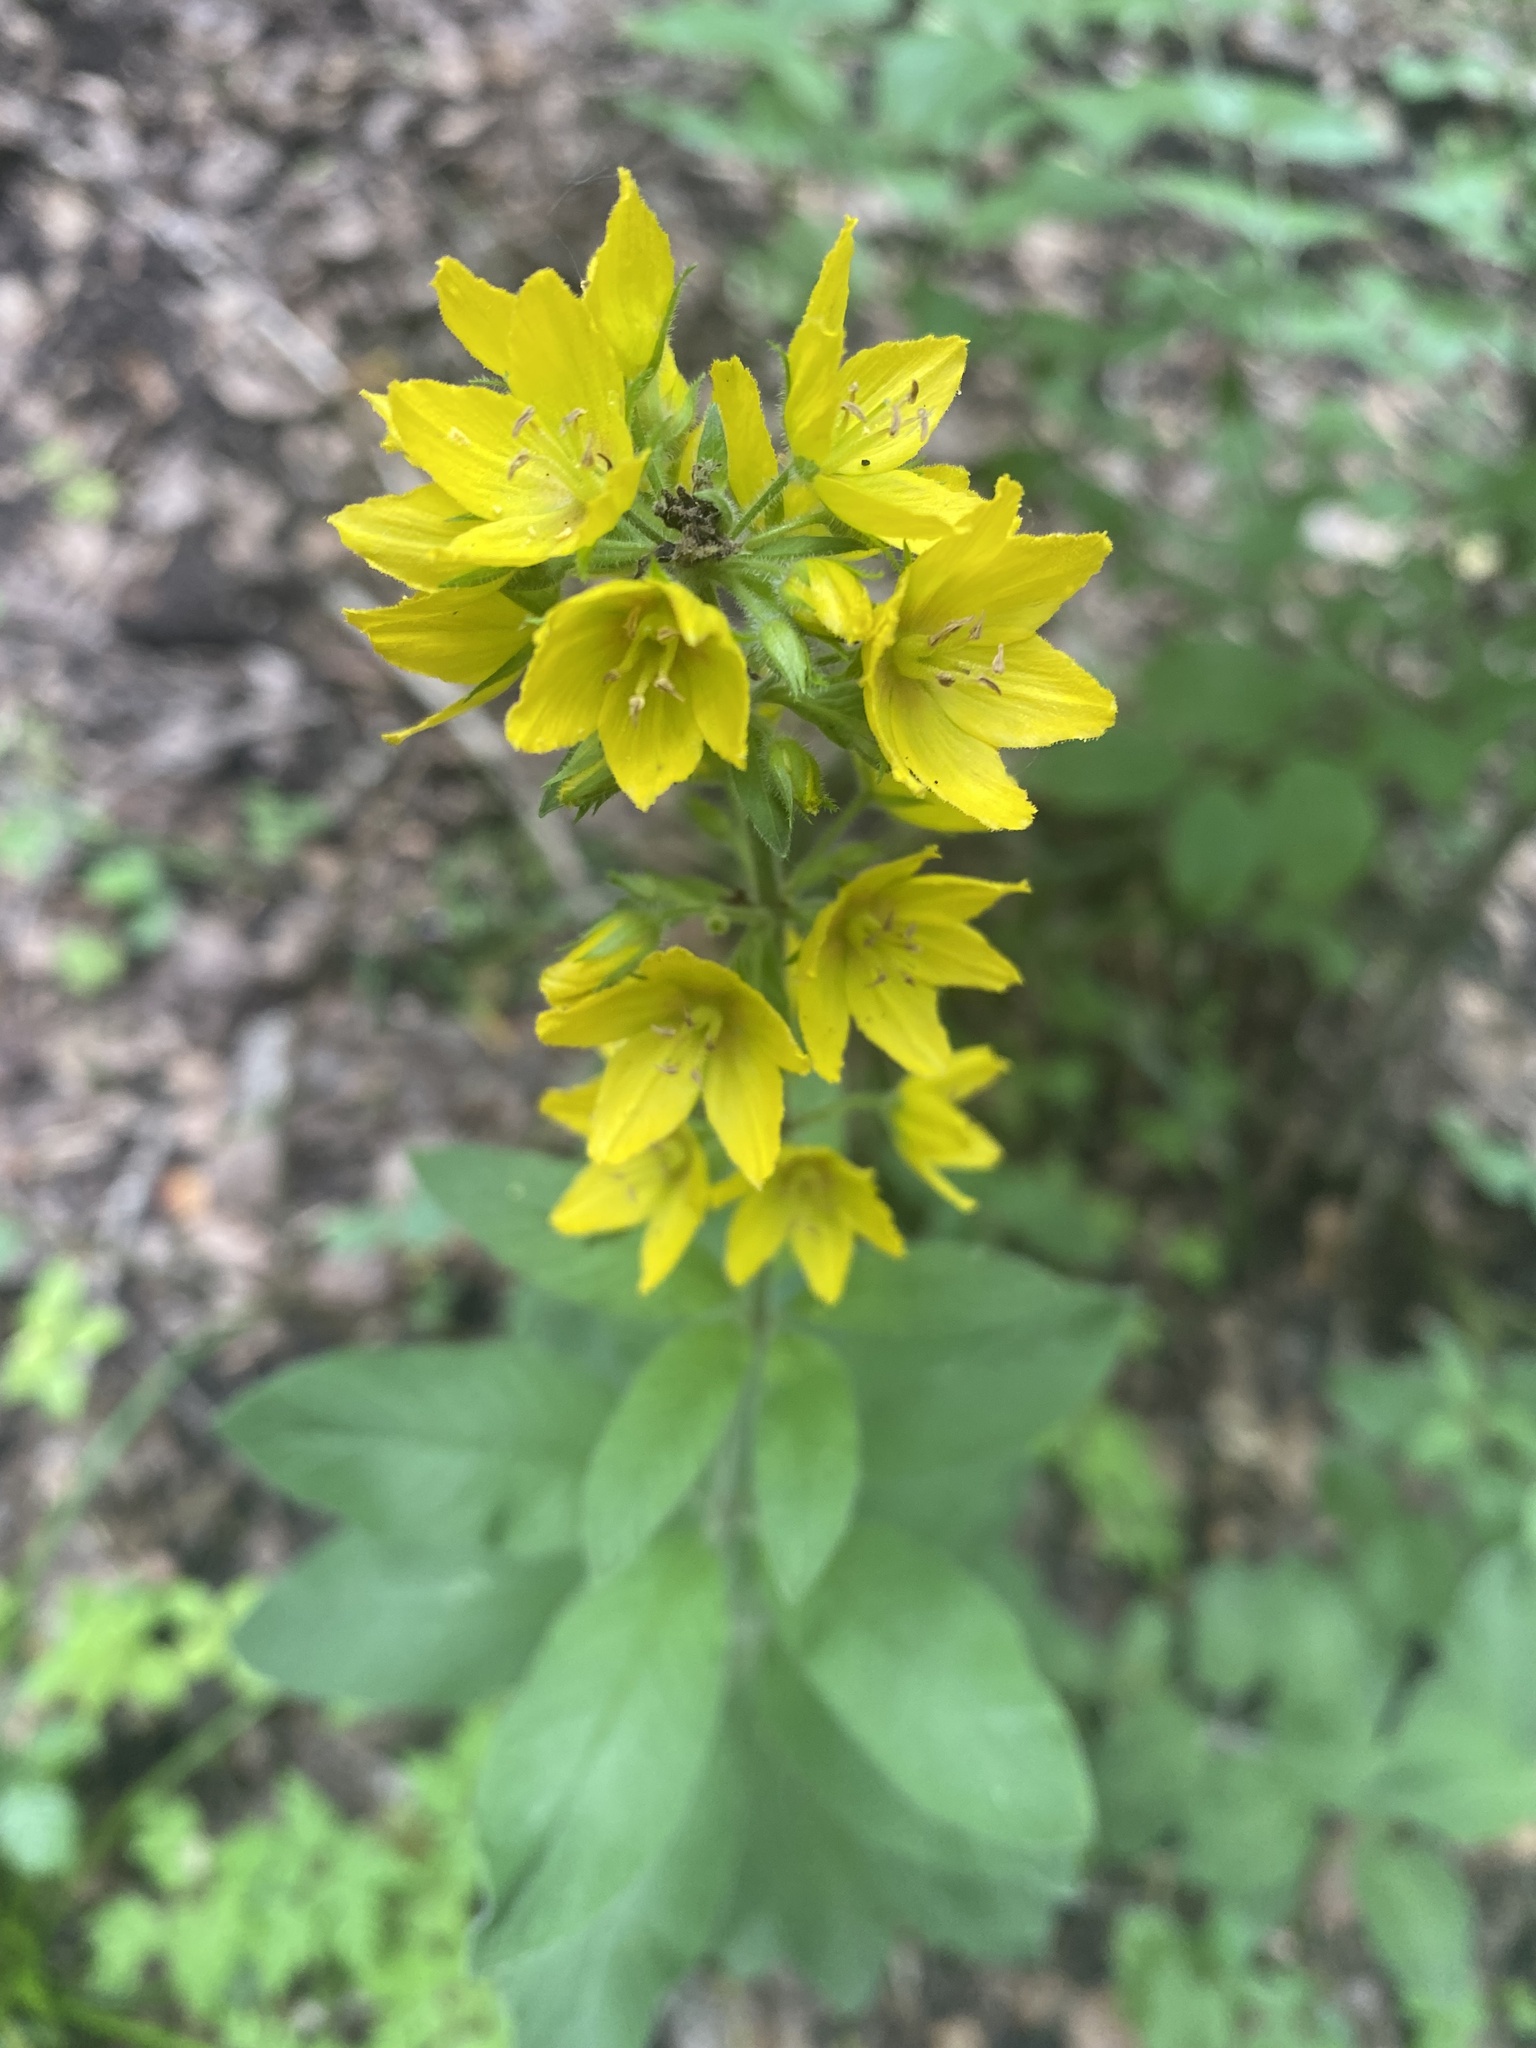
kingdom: Plantae
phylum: Tracheophyta
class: Magnoliopsida
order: Ericales
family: Primulaceae
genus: Lysimachia
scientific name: Lysimachia verticillaris
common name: Yellow loosestrife
